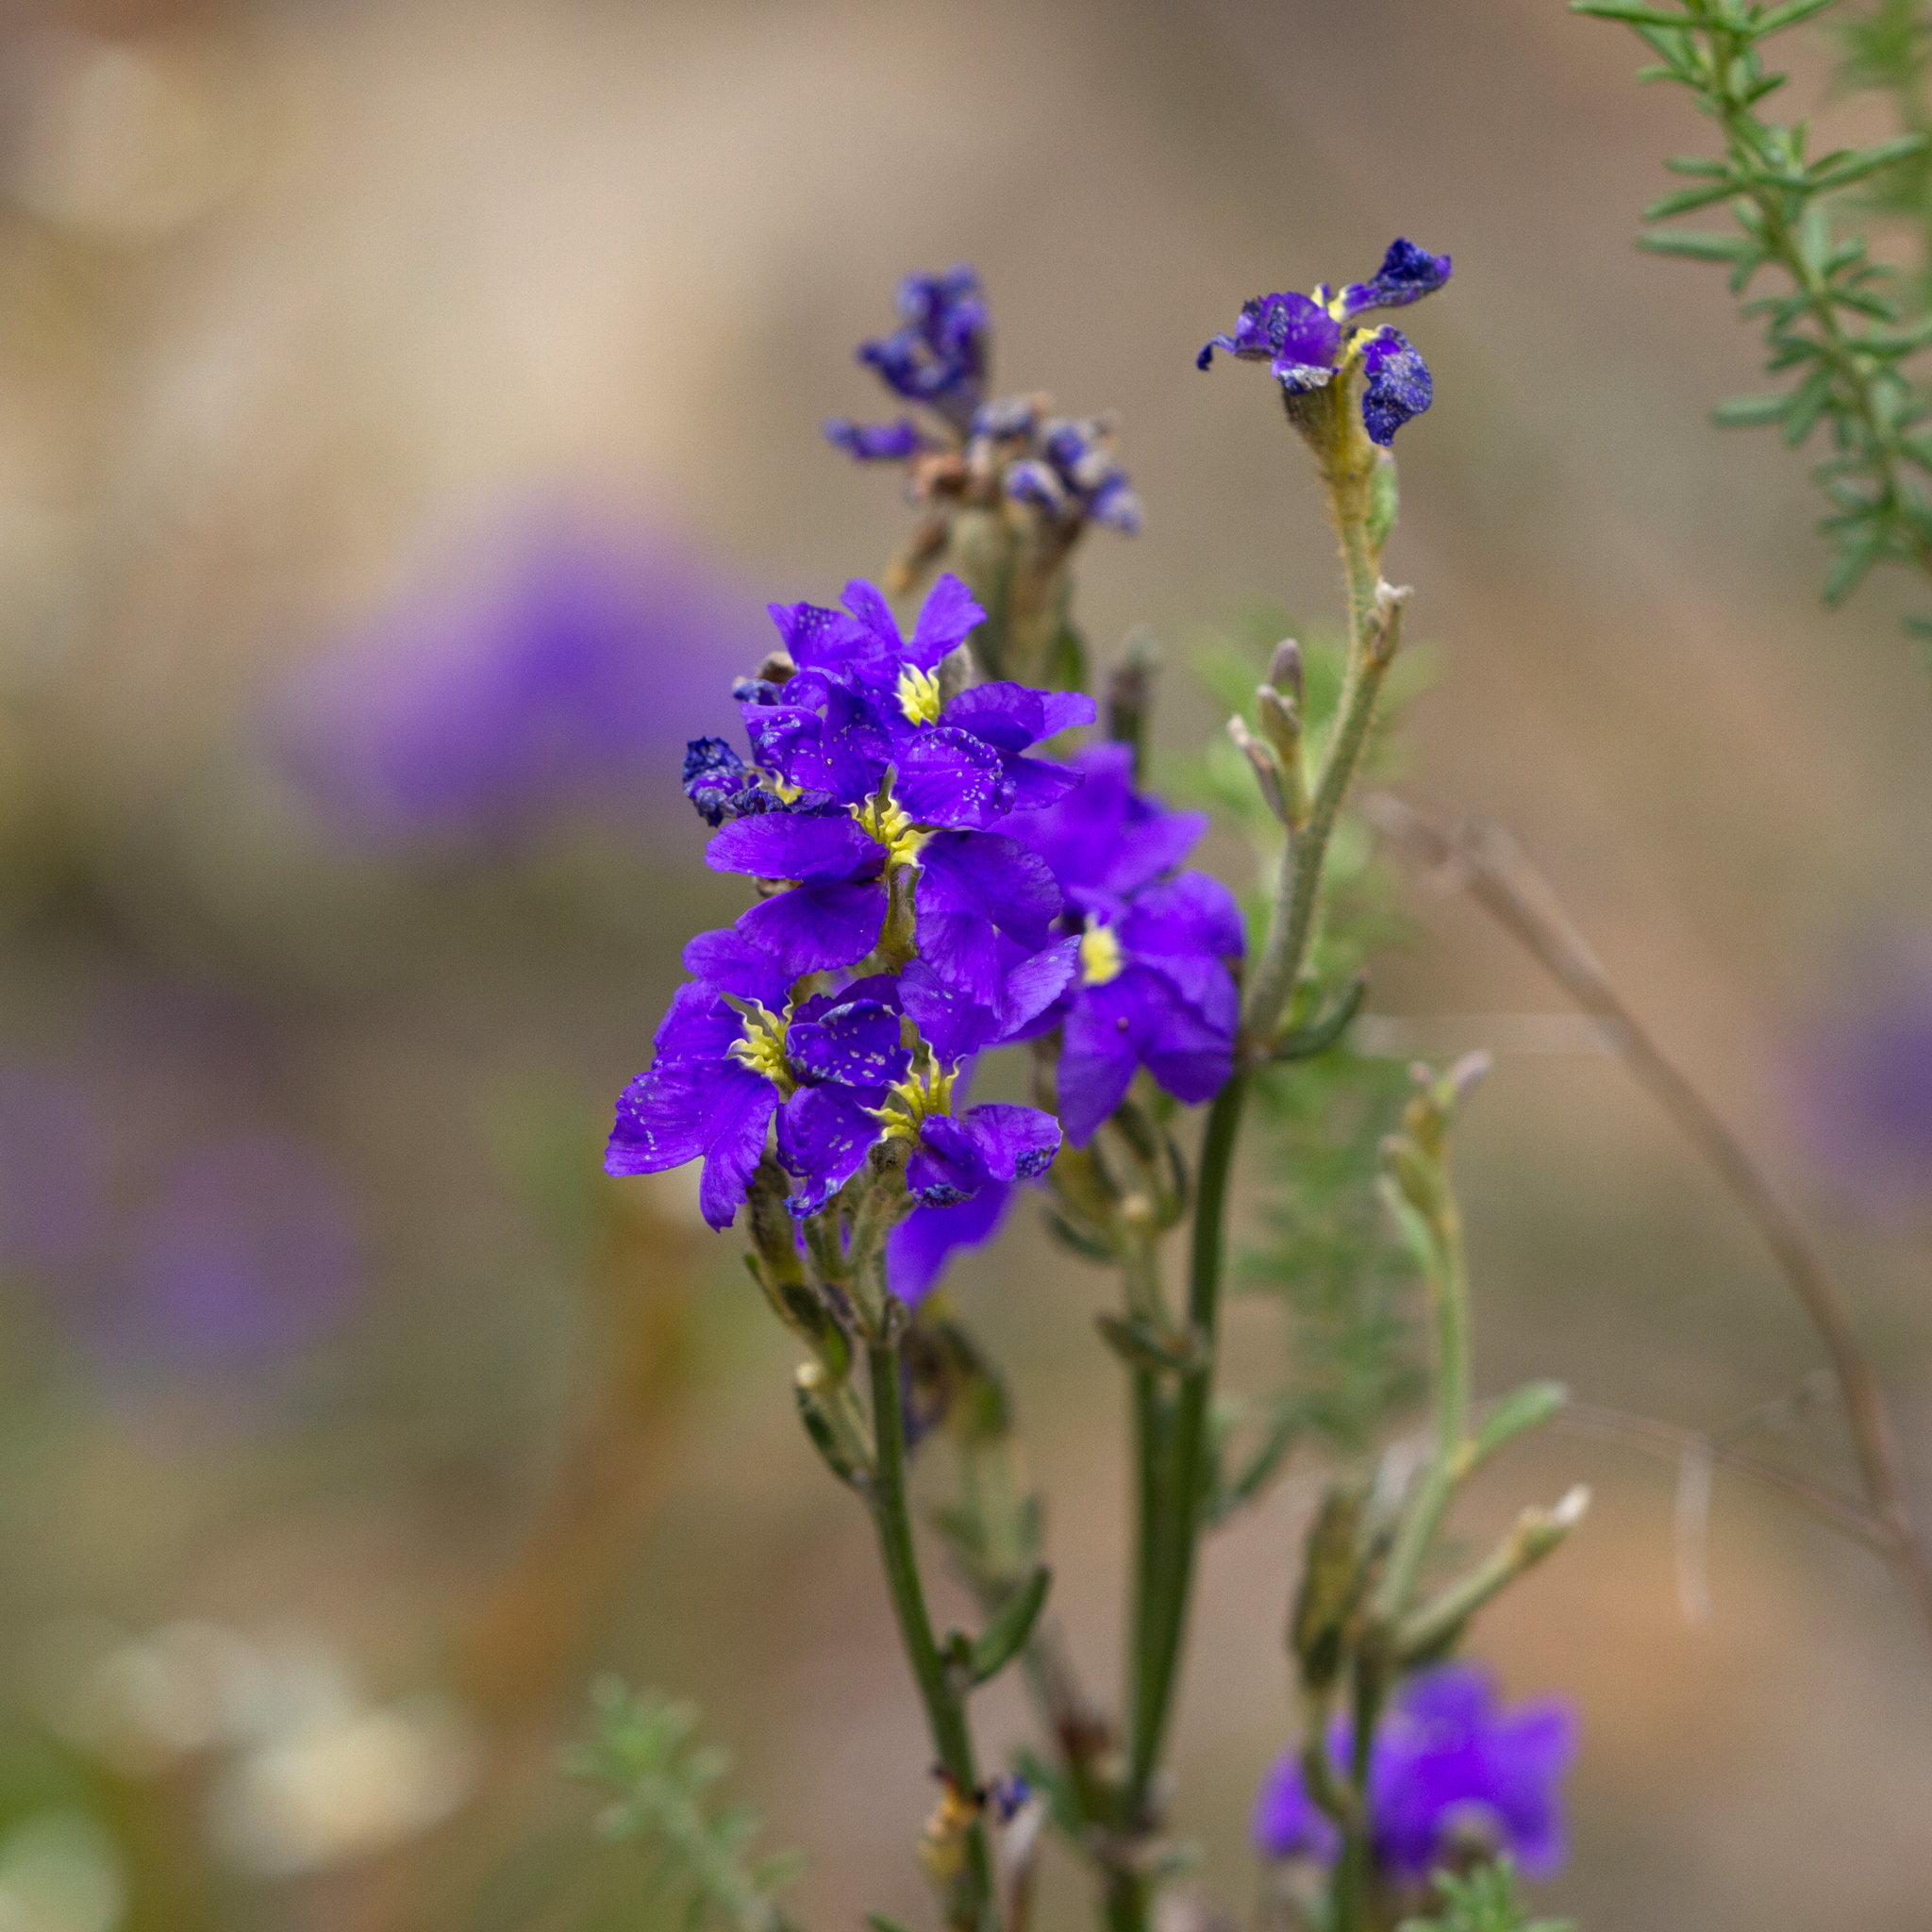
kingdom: Plantae
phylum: Tracheophyta
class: Magnoliopsida
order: Asterales
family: Goodeniaceae
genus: Dampiera
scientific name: Dampiera dysantha
